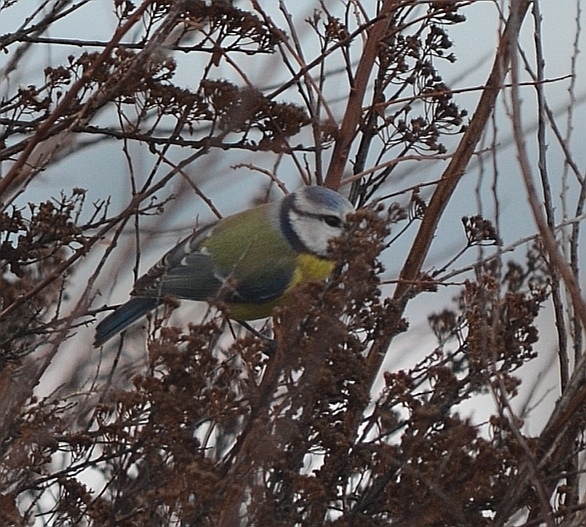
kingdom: Animalia
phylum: Chordata
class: Aves
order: Passeriformes
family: Paridae
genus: Cyanistes
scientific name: Cyanistes caeruleus
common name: Eurasian blue tit
